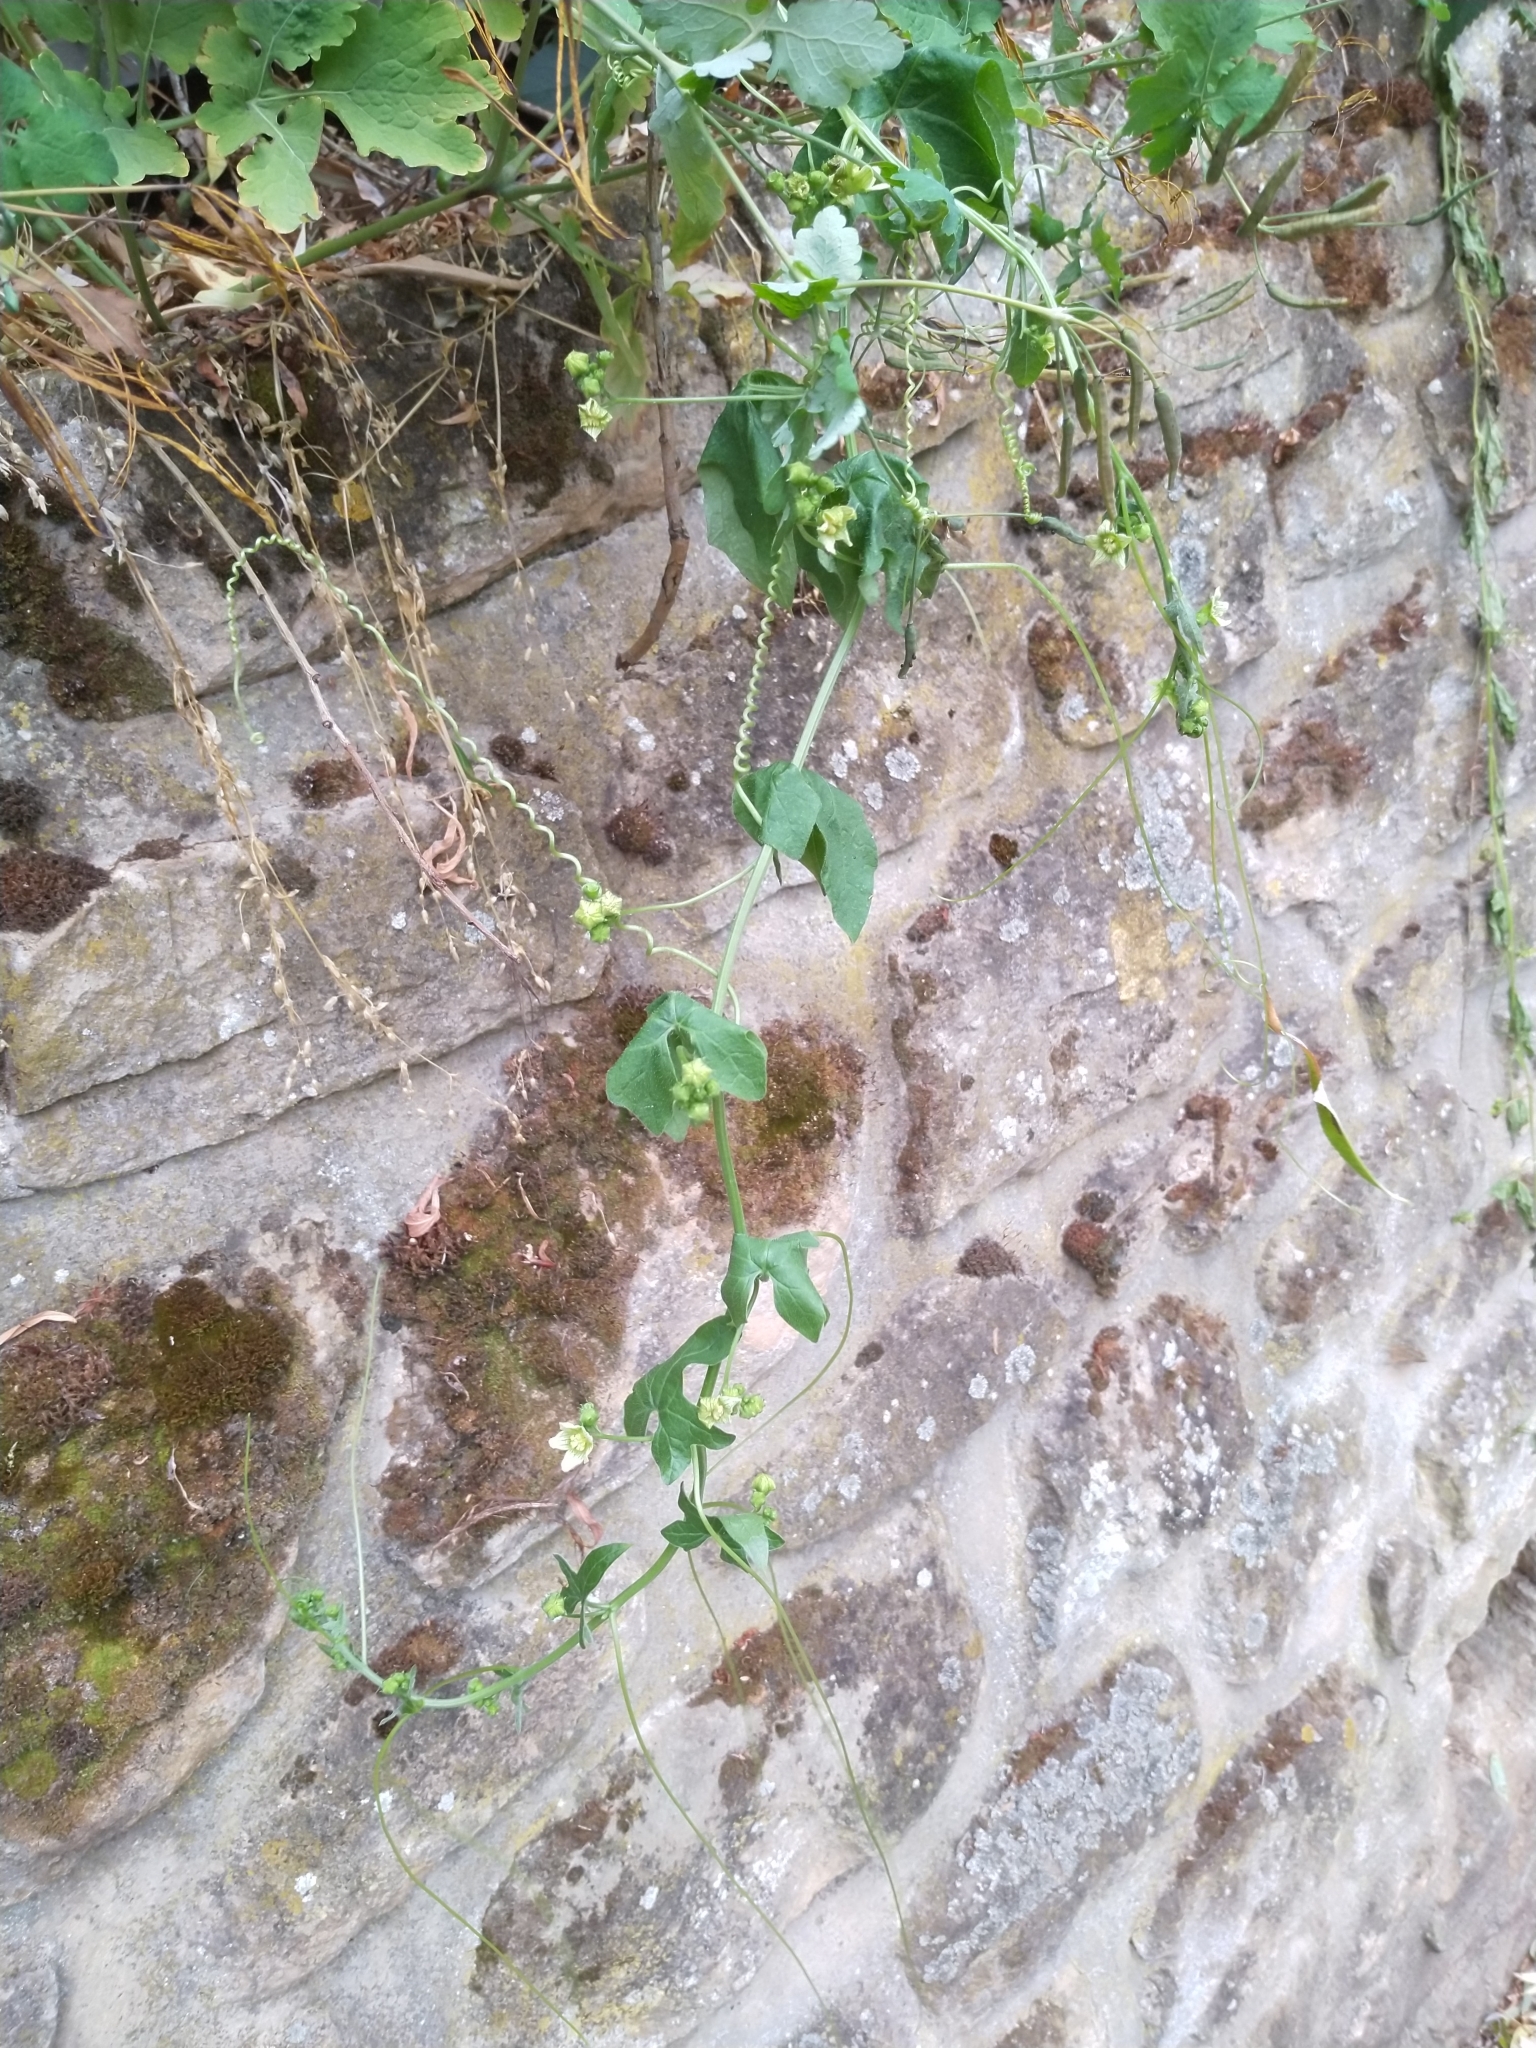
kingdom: Plantae
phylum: Tracheophyta
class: Magnoliopsida
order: Cucurbitales
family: Cucurbitaceae
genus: Bryonia
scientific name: Bryonia cretica
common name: Cretan bryony
